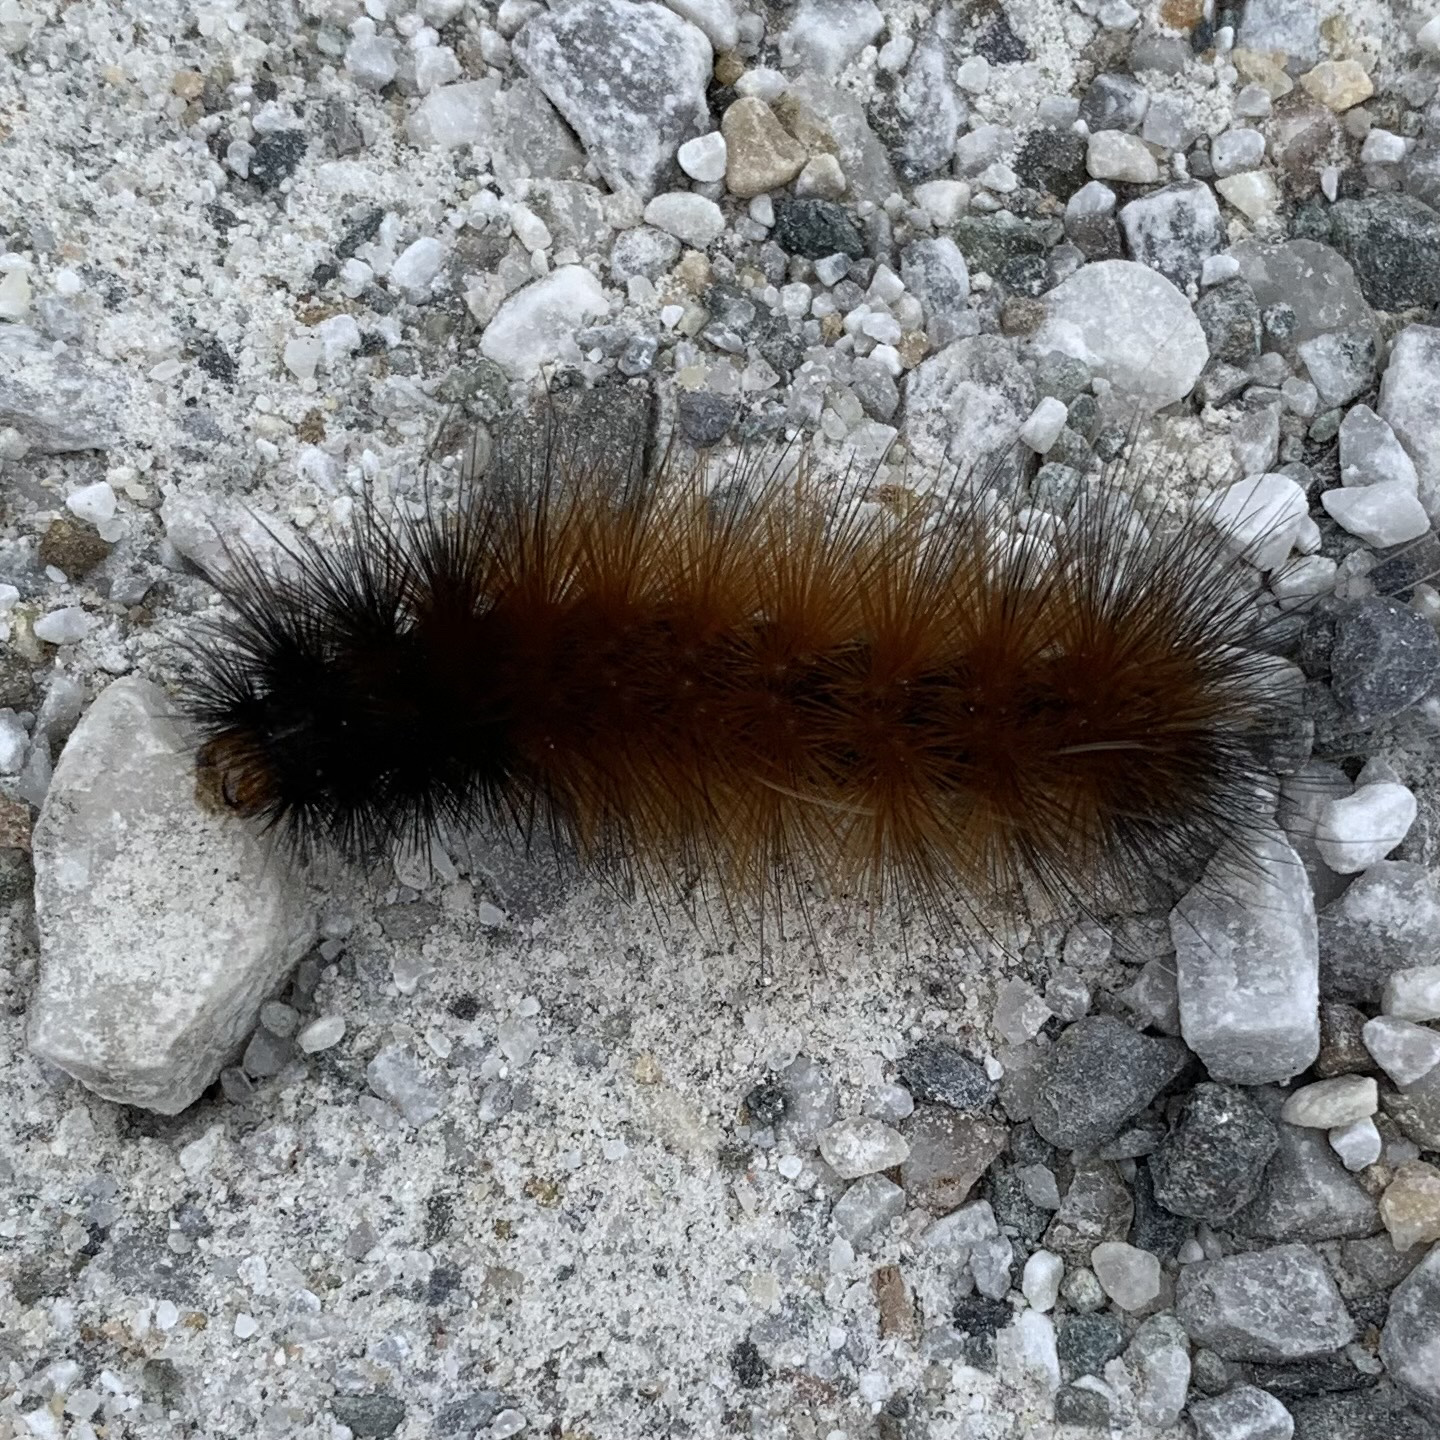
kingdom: Animalia
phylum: Arthropoda
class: Insecta
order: Lepidoptera
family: Erebidae
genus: Spilosoma
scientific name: Spilosoma virginica
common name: Virginia tiger moth
